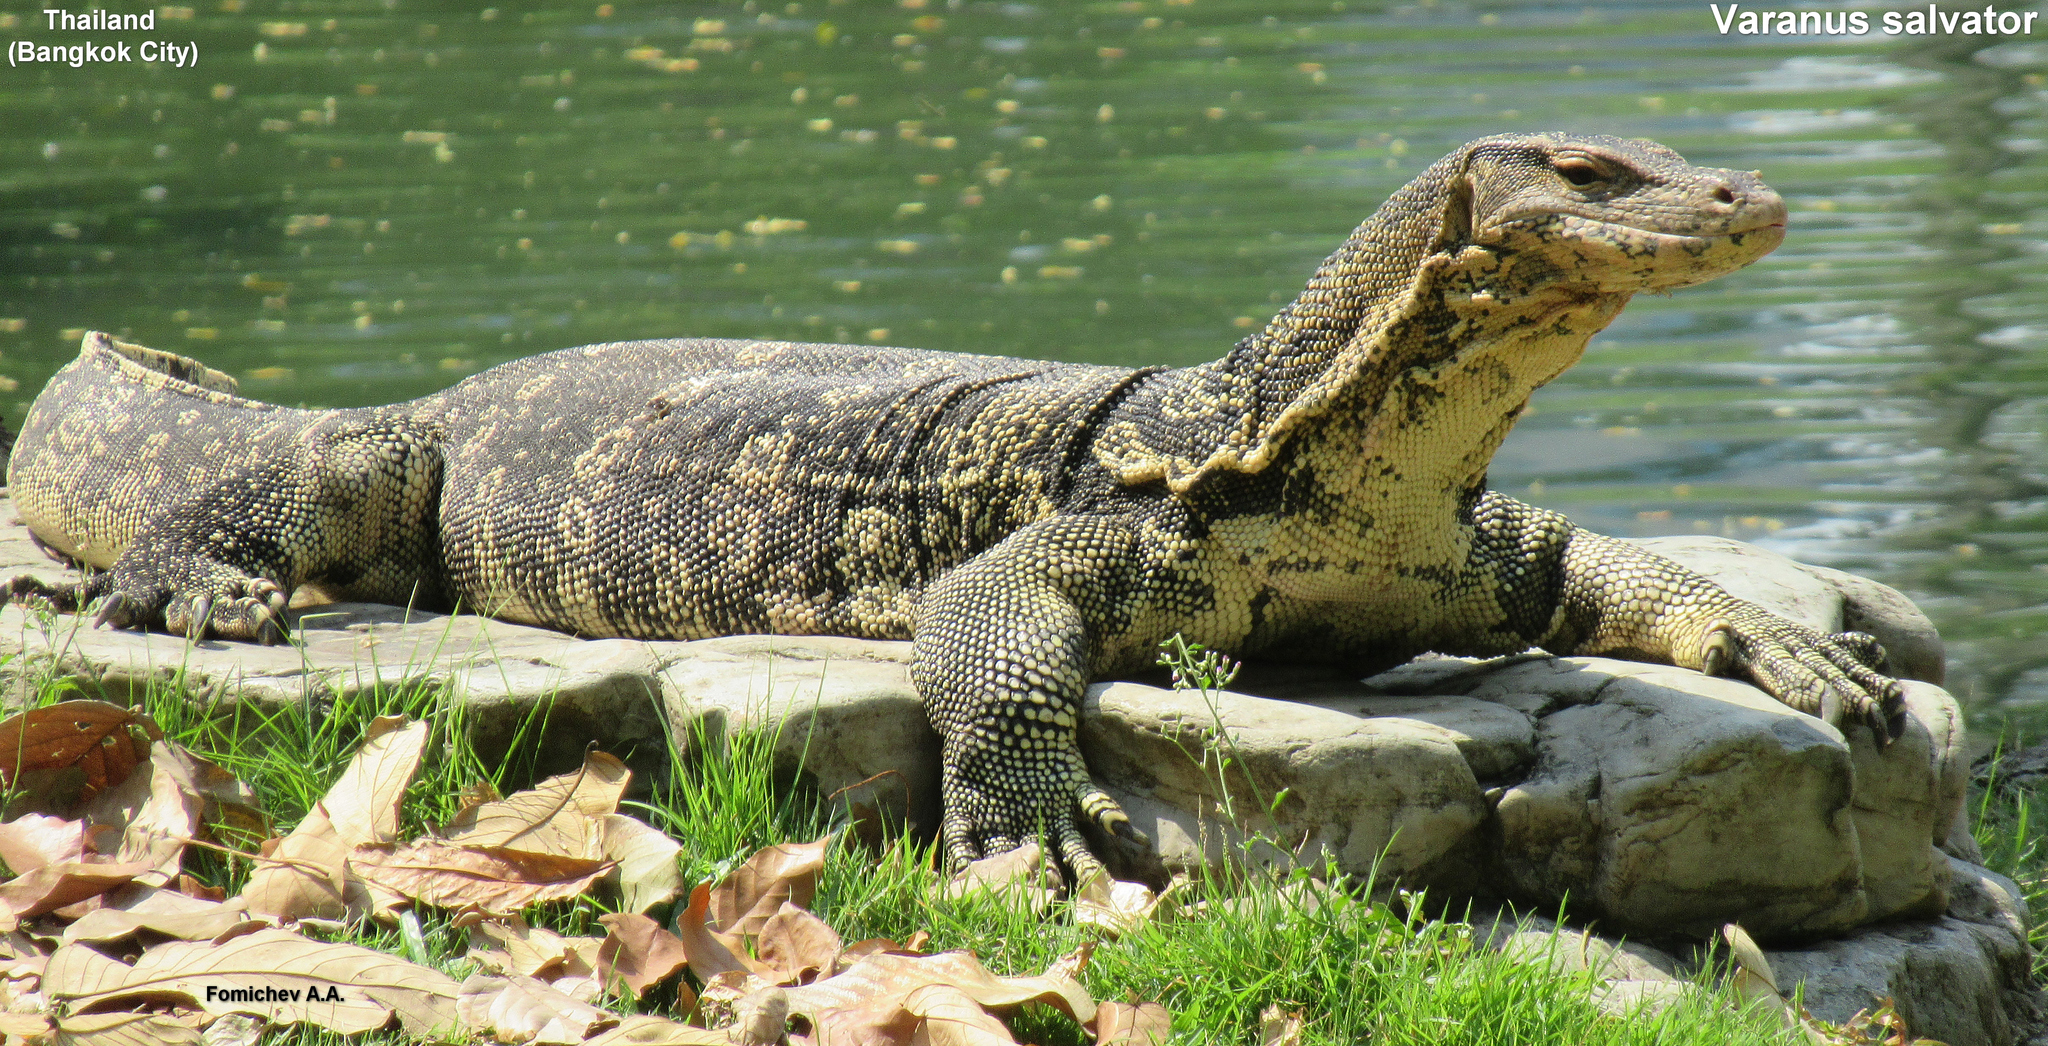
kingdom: Animalia
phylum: Chordata
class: Squamata
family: Varanidae
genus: Varanus
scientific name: Varanus salvator
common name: Common water monitor
